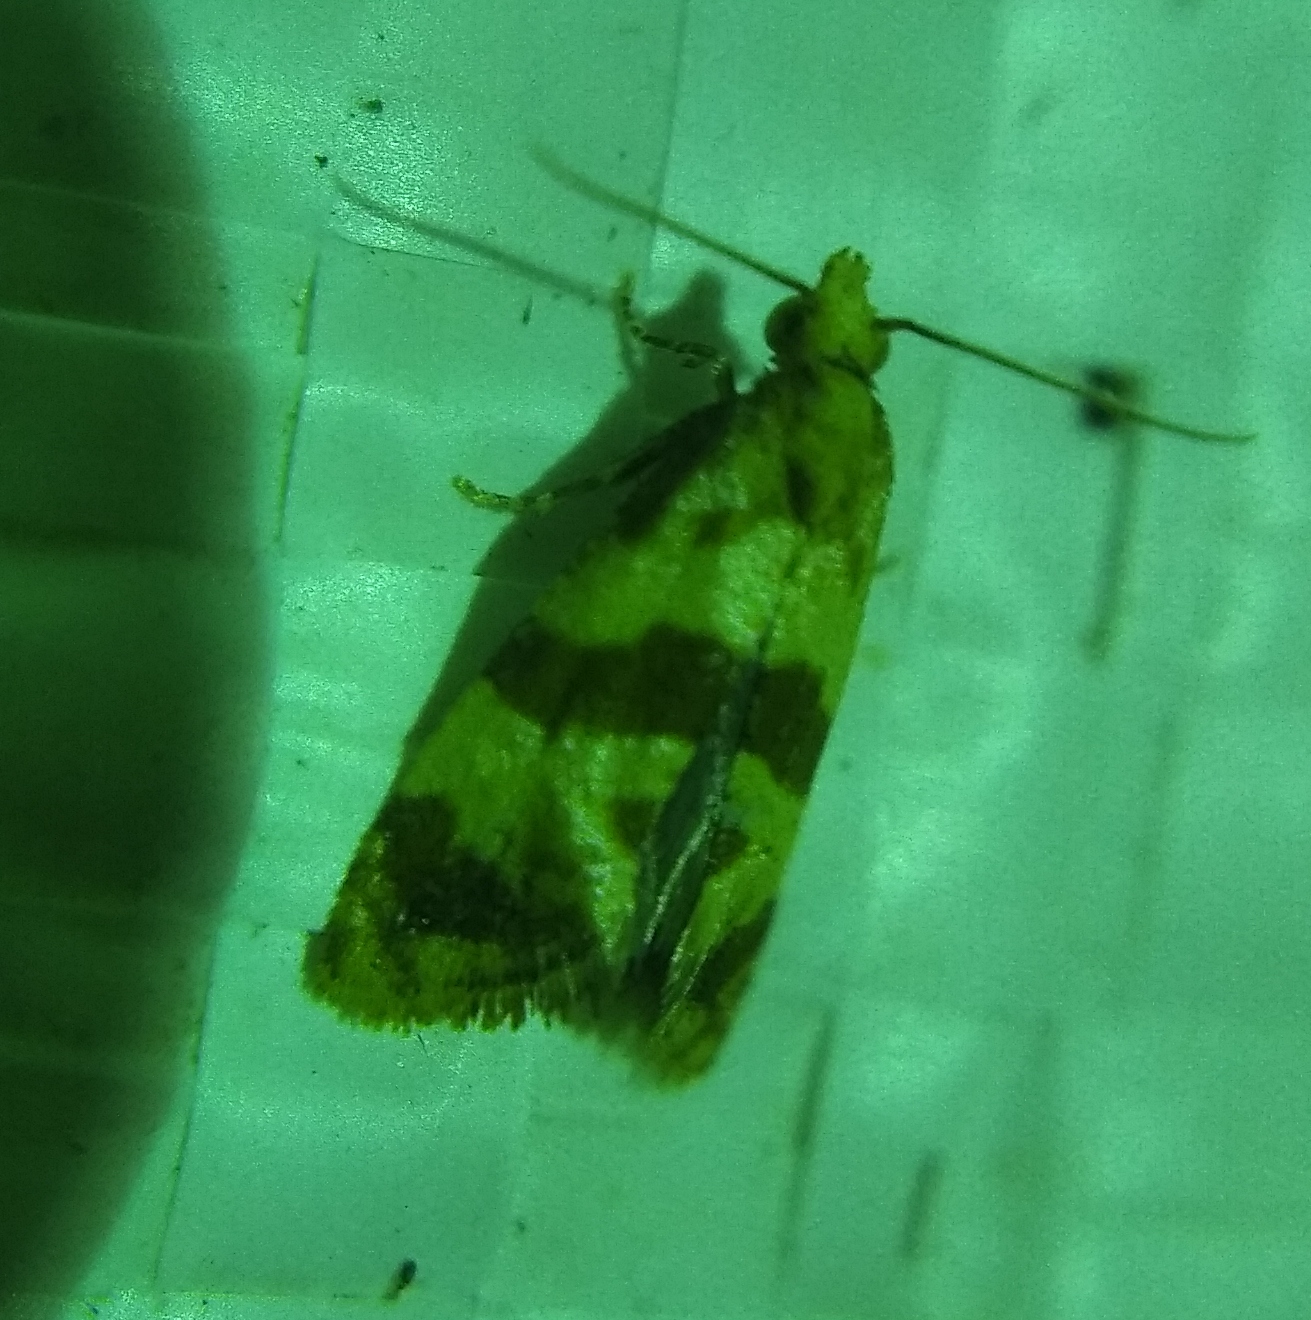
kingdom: Animalia
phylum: Arthropoda
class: Insecta
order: Lepidoptera
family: Tortricidae
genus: Phalonidia
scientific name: Phalonidia contractana
